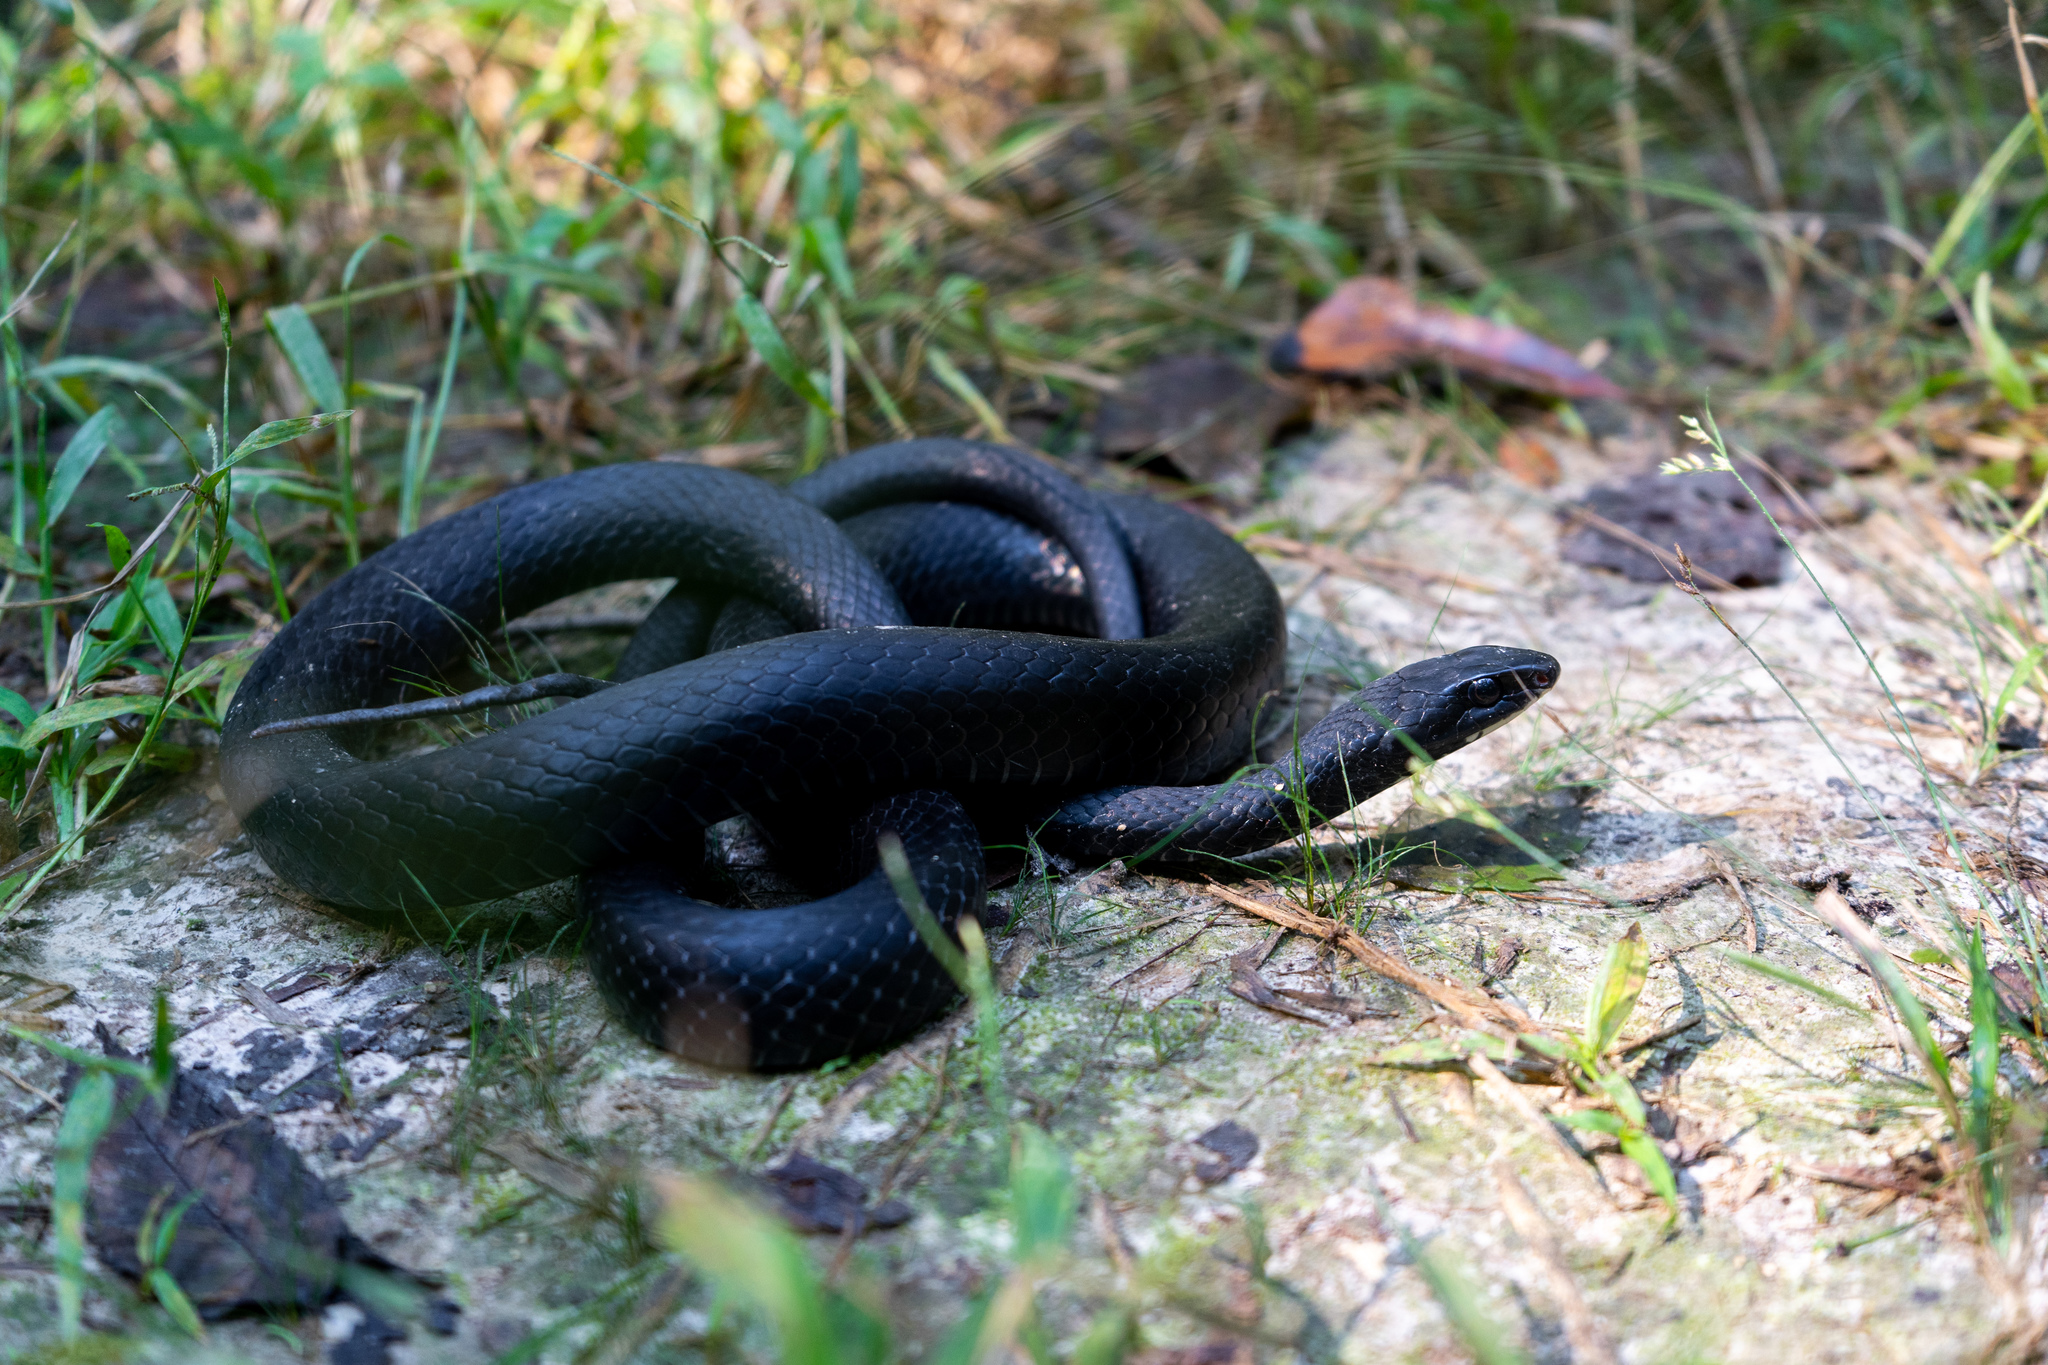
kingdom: Animalia
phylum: Chordata
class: Squamata
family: Colubridae
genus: Coluber
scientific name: Coluber constrictor
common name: Eastern racer
